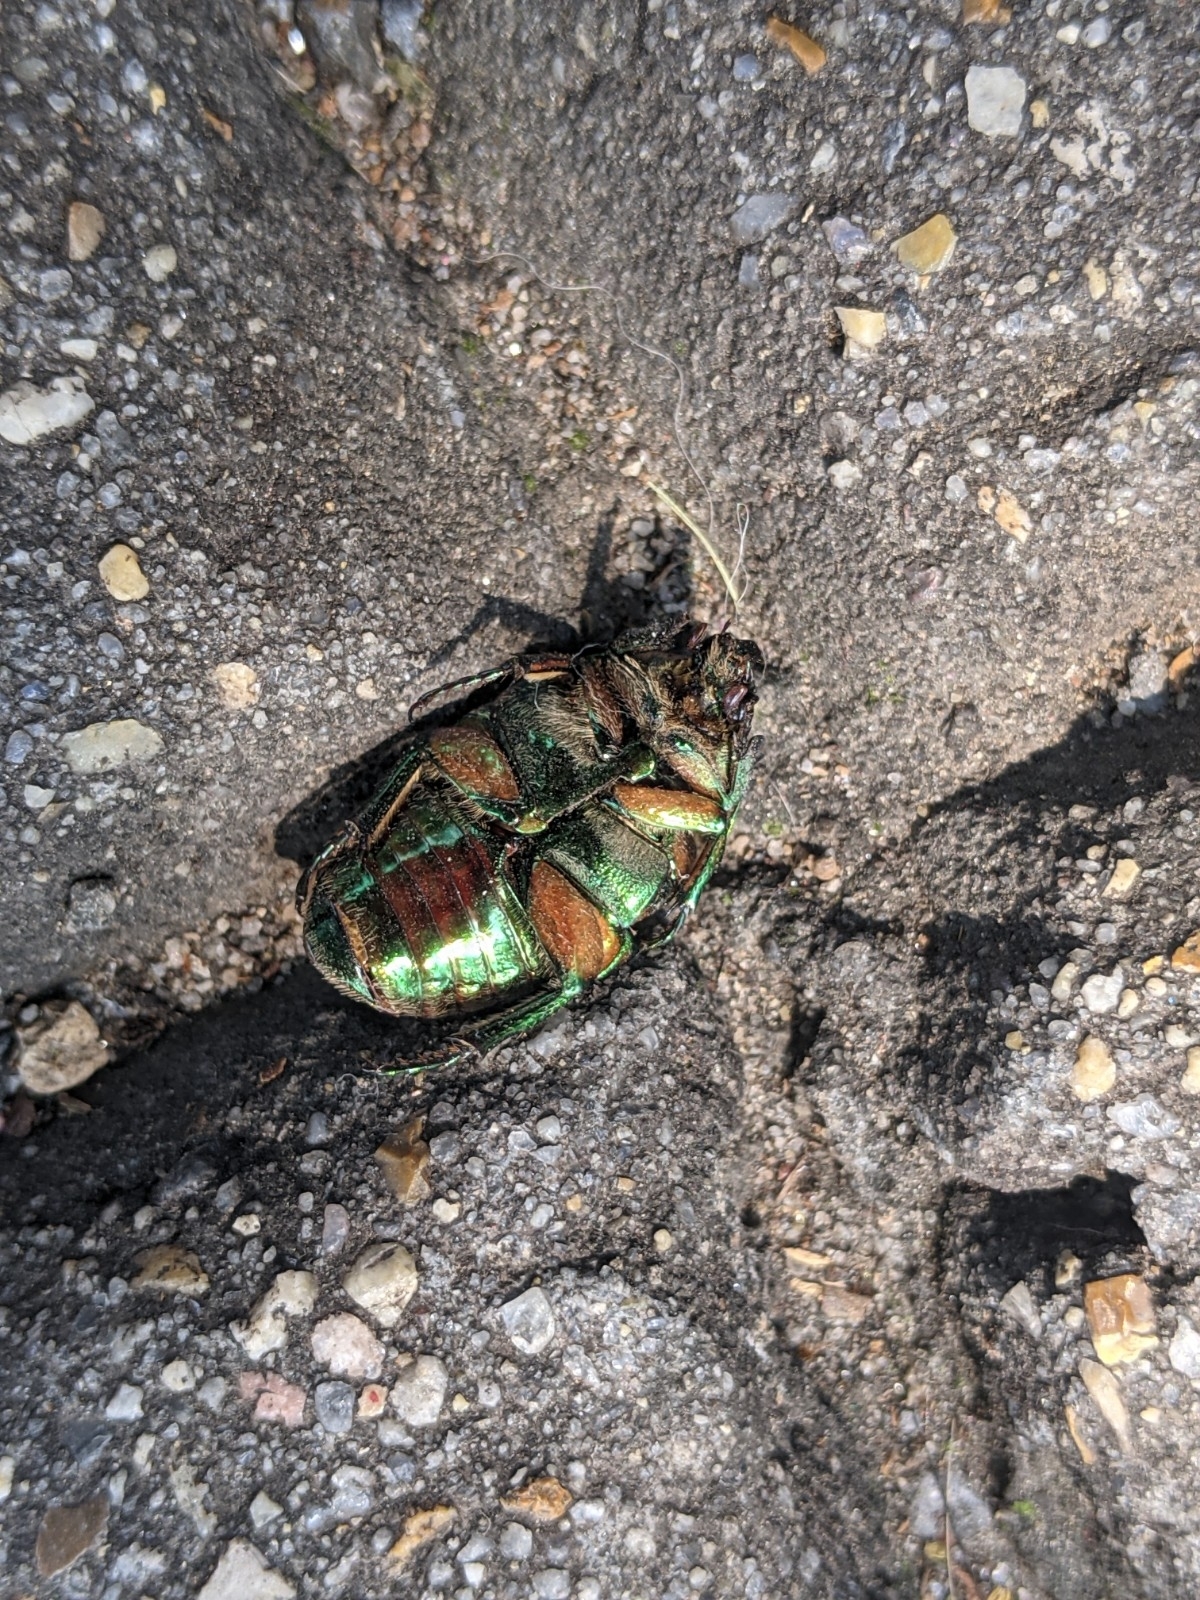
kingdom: Animalia
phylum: Arthropoda
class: Insecta
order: Coleoptera
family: Scarabaeidae
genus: Cotinis
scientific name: Cotinis nitida
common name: Common green june beetle
